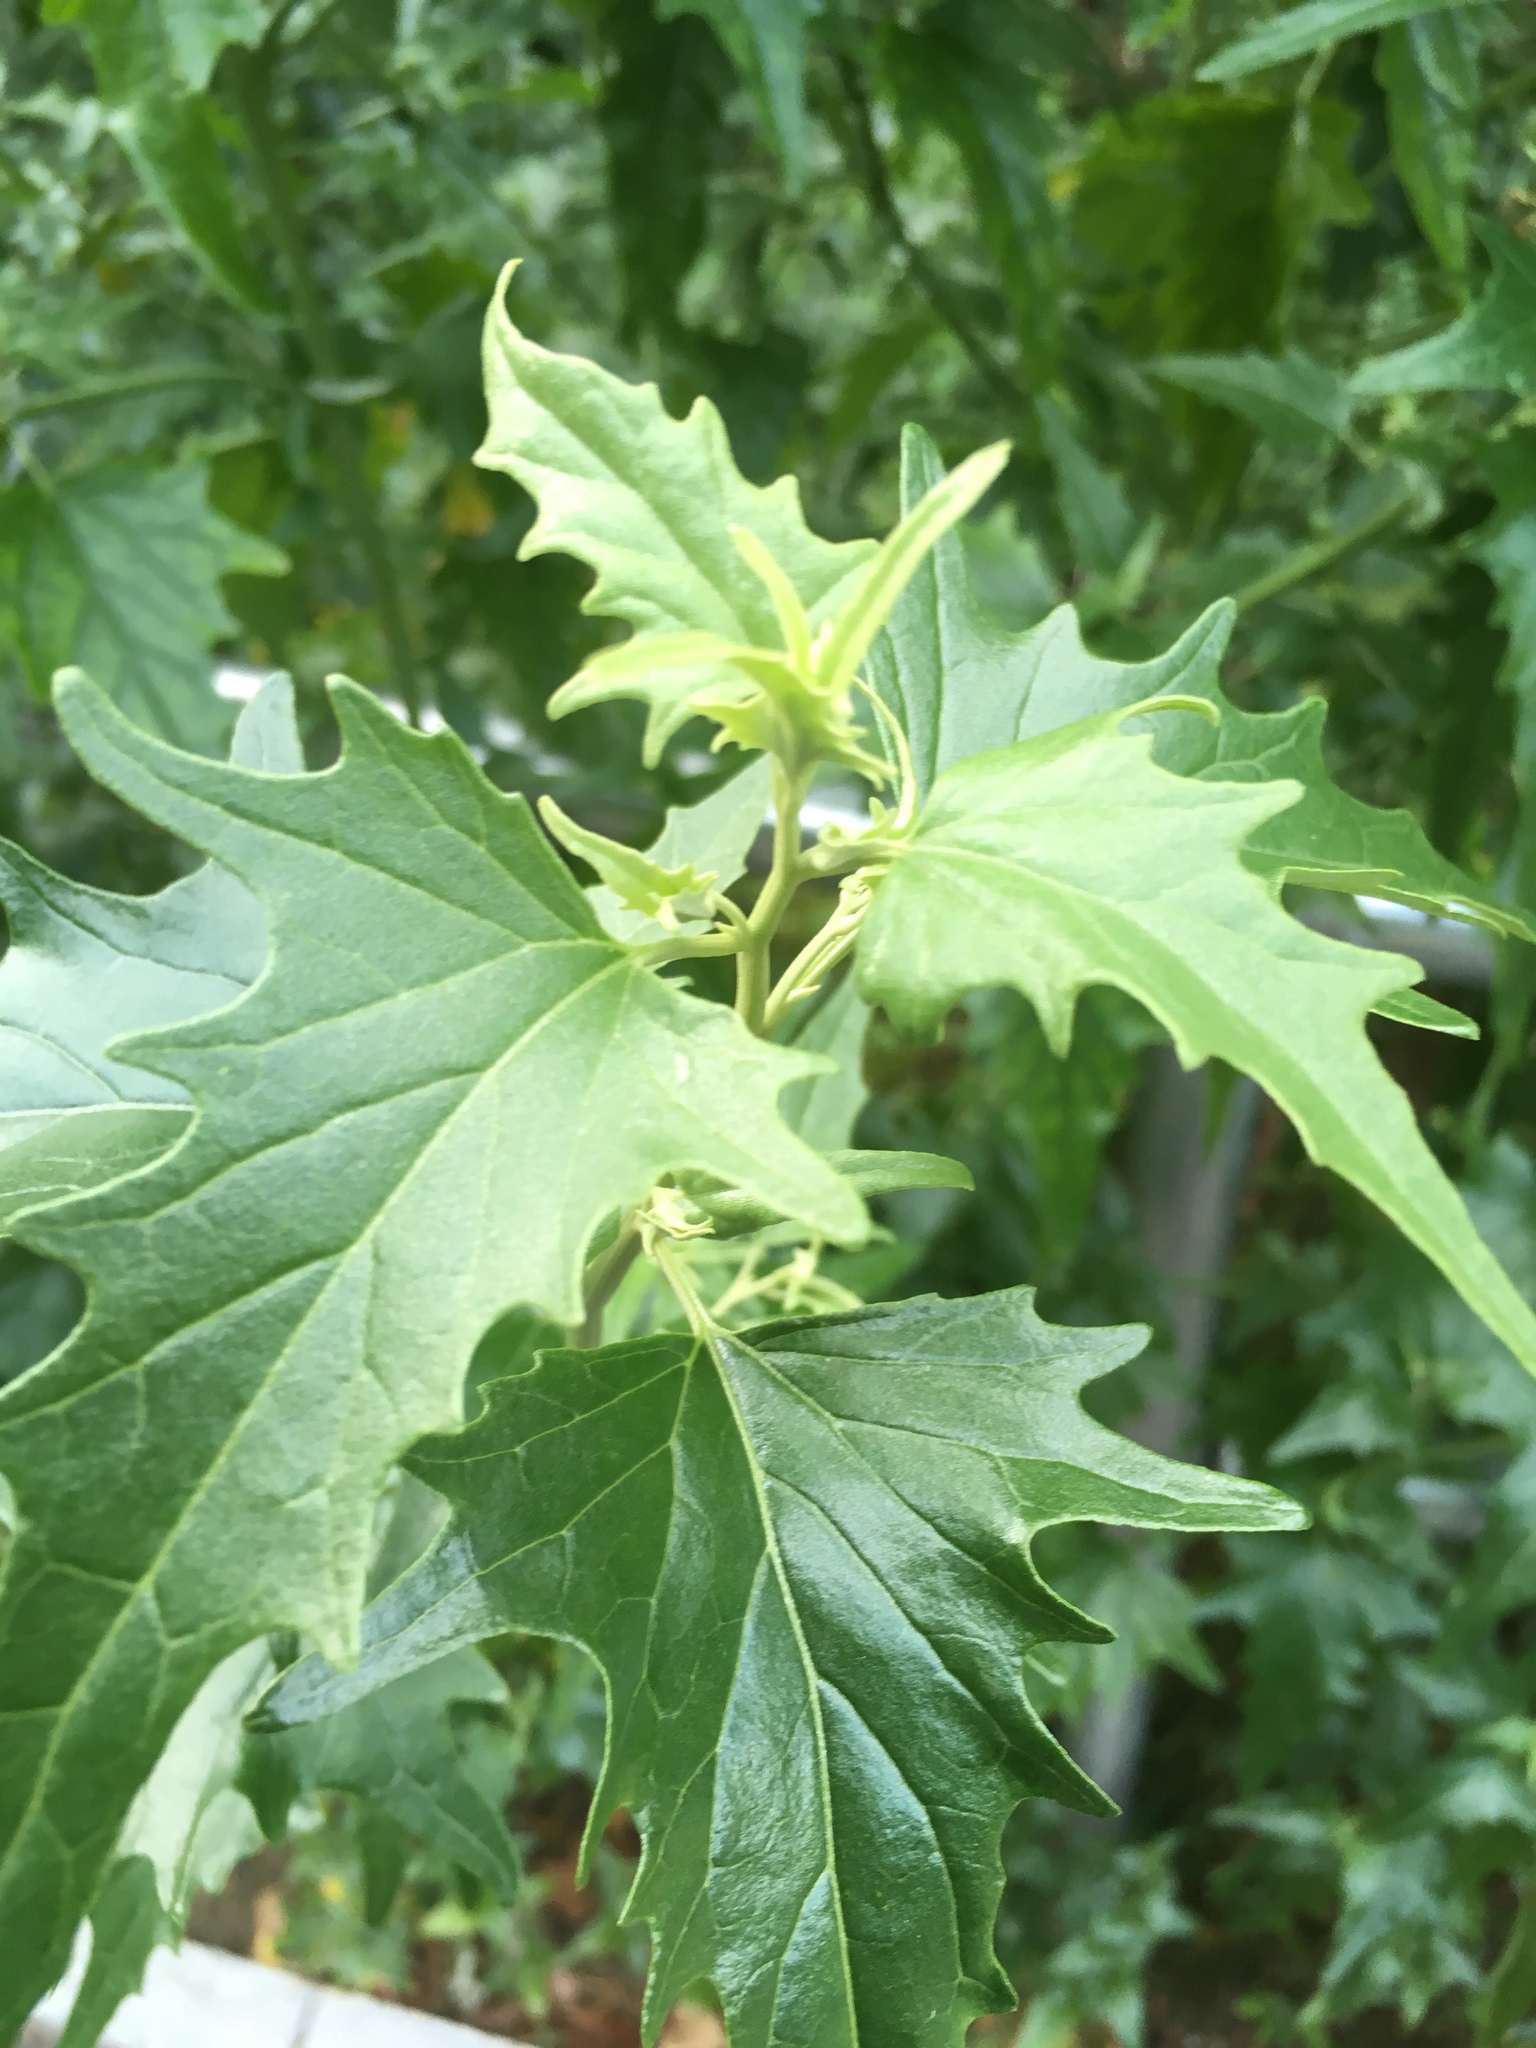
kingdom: Plantae
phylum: Tracheophyta
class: Magnoliopsida
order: Caryophyllales
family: Amaranthaceae
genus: Atriplex
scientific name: Atriplex sagittata
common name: Purple orache
